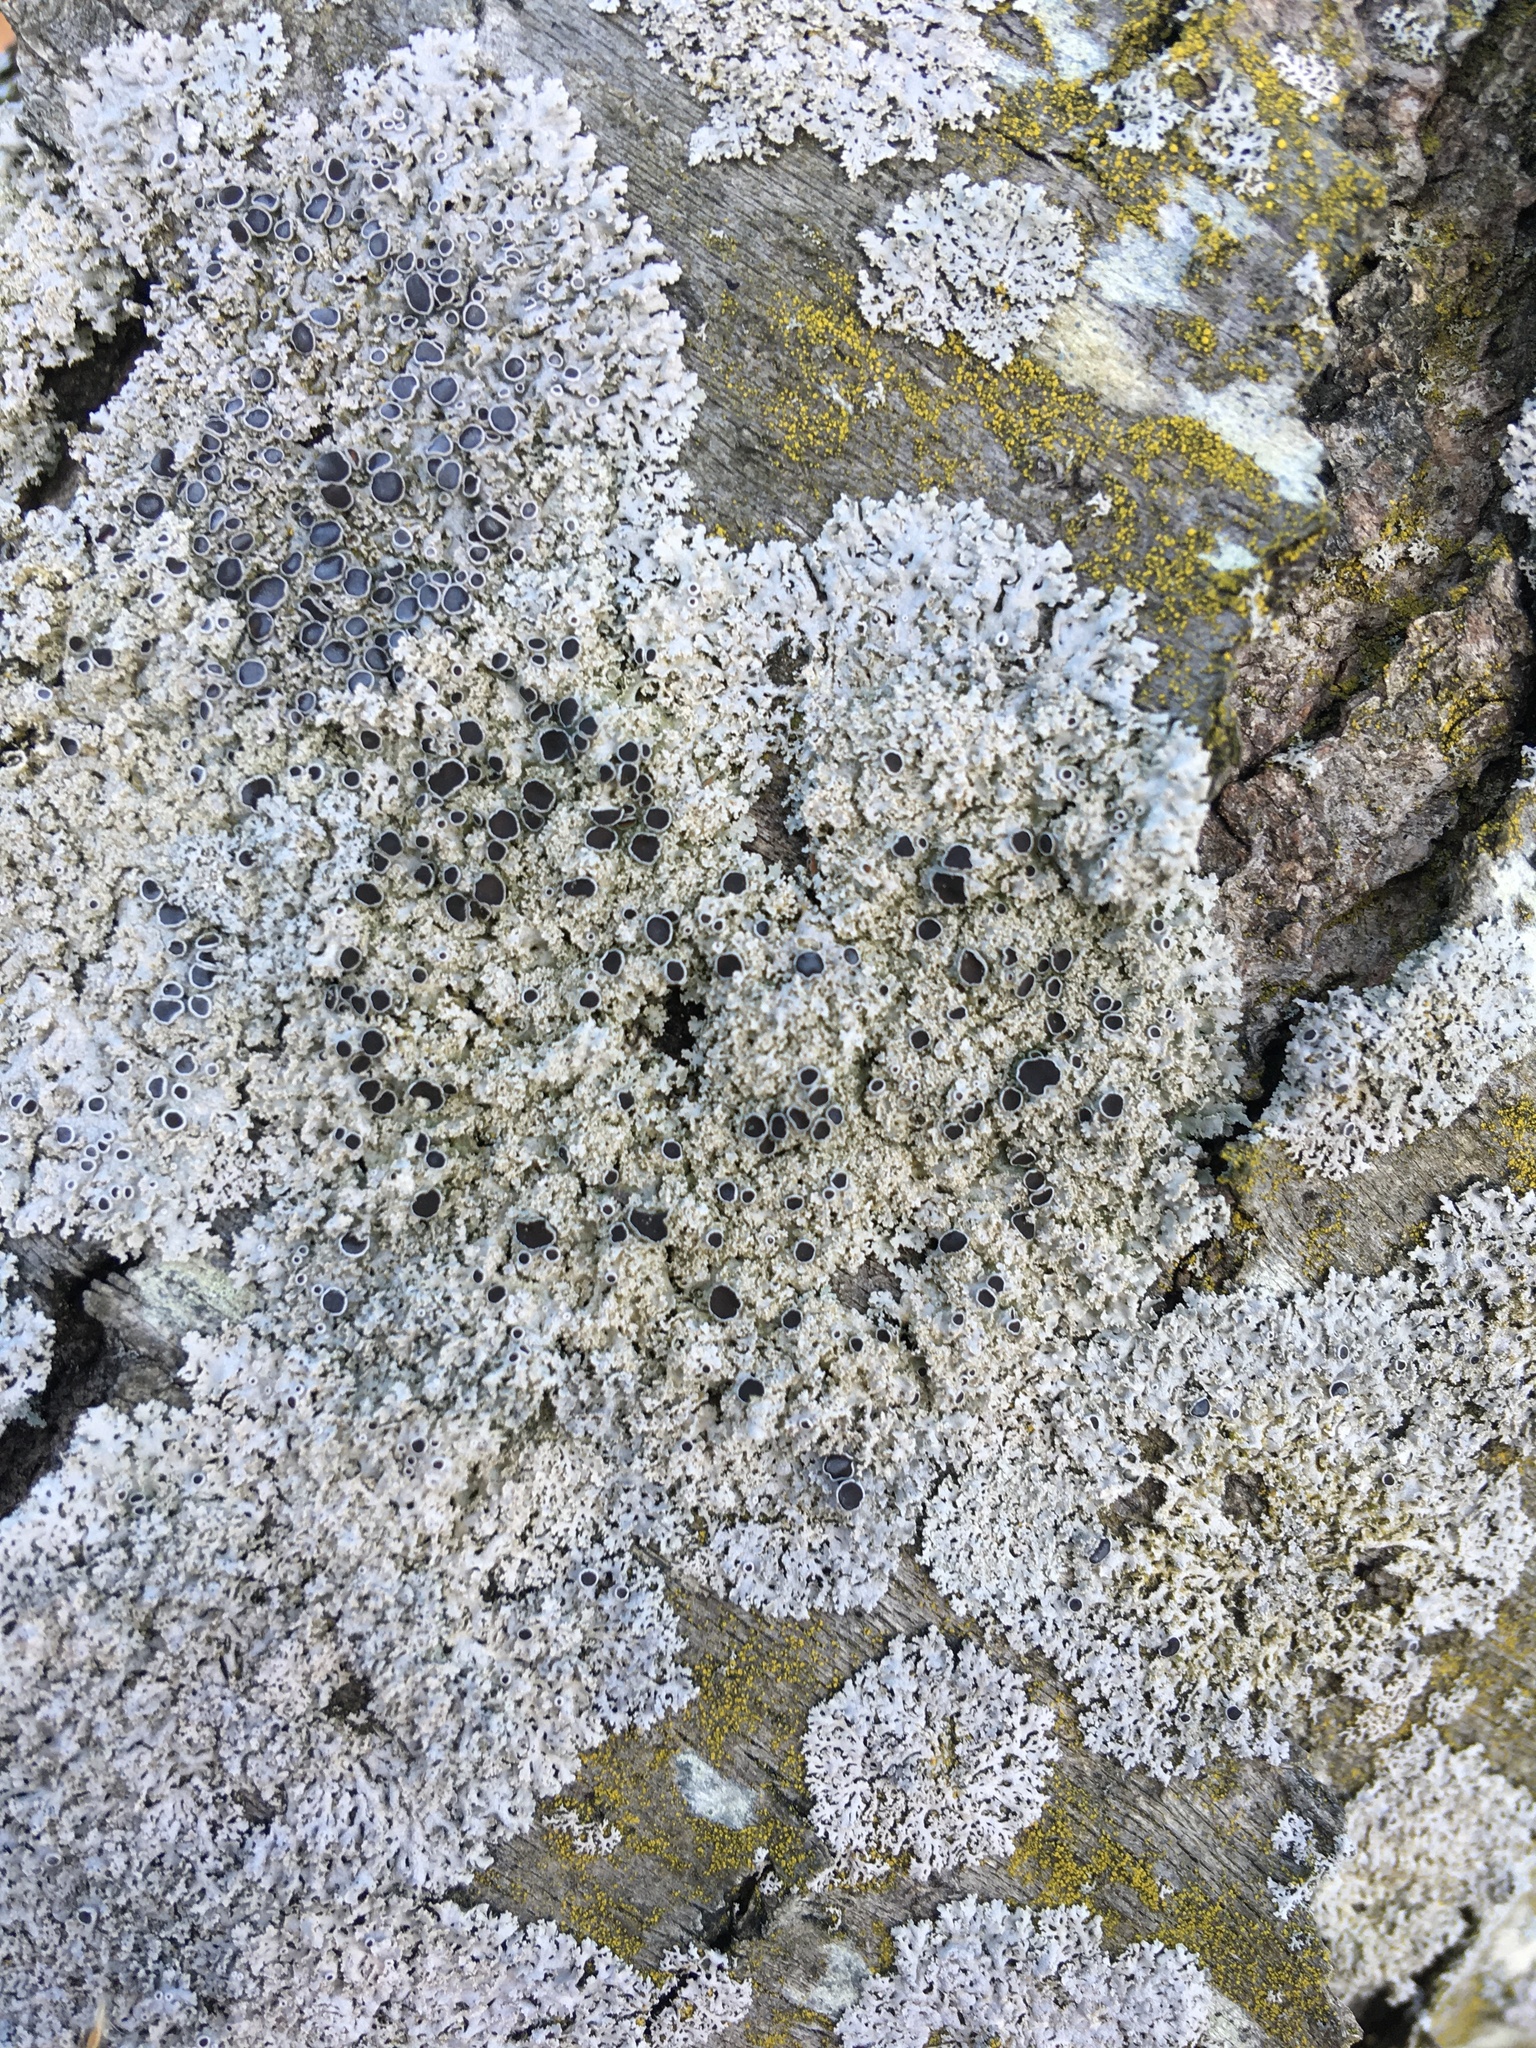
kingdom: Fungi
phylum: Ascomycota
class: Lecanoromycetes
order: Caliciales
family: Physciaceae
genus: Physcia
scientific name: Physcia millegrana
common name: Rosette lichen
